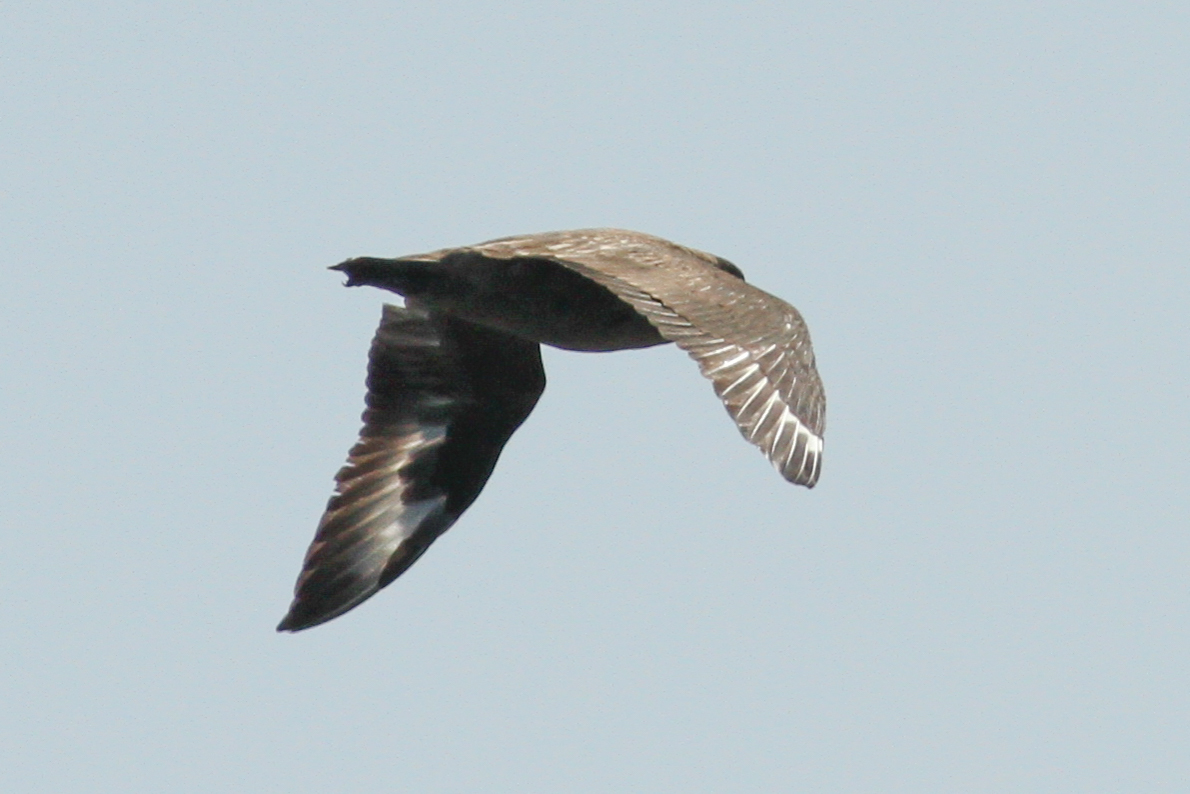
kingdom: Animalia
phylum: Chordata
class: Aves
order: Charadriiformes
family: Stercorariidae
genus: Stercorarius
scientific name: Stercorarius skua
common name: Great skua
